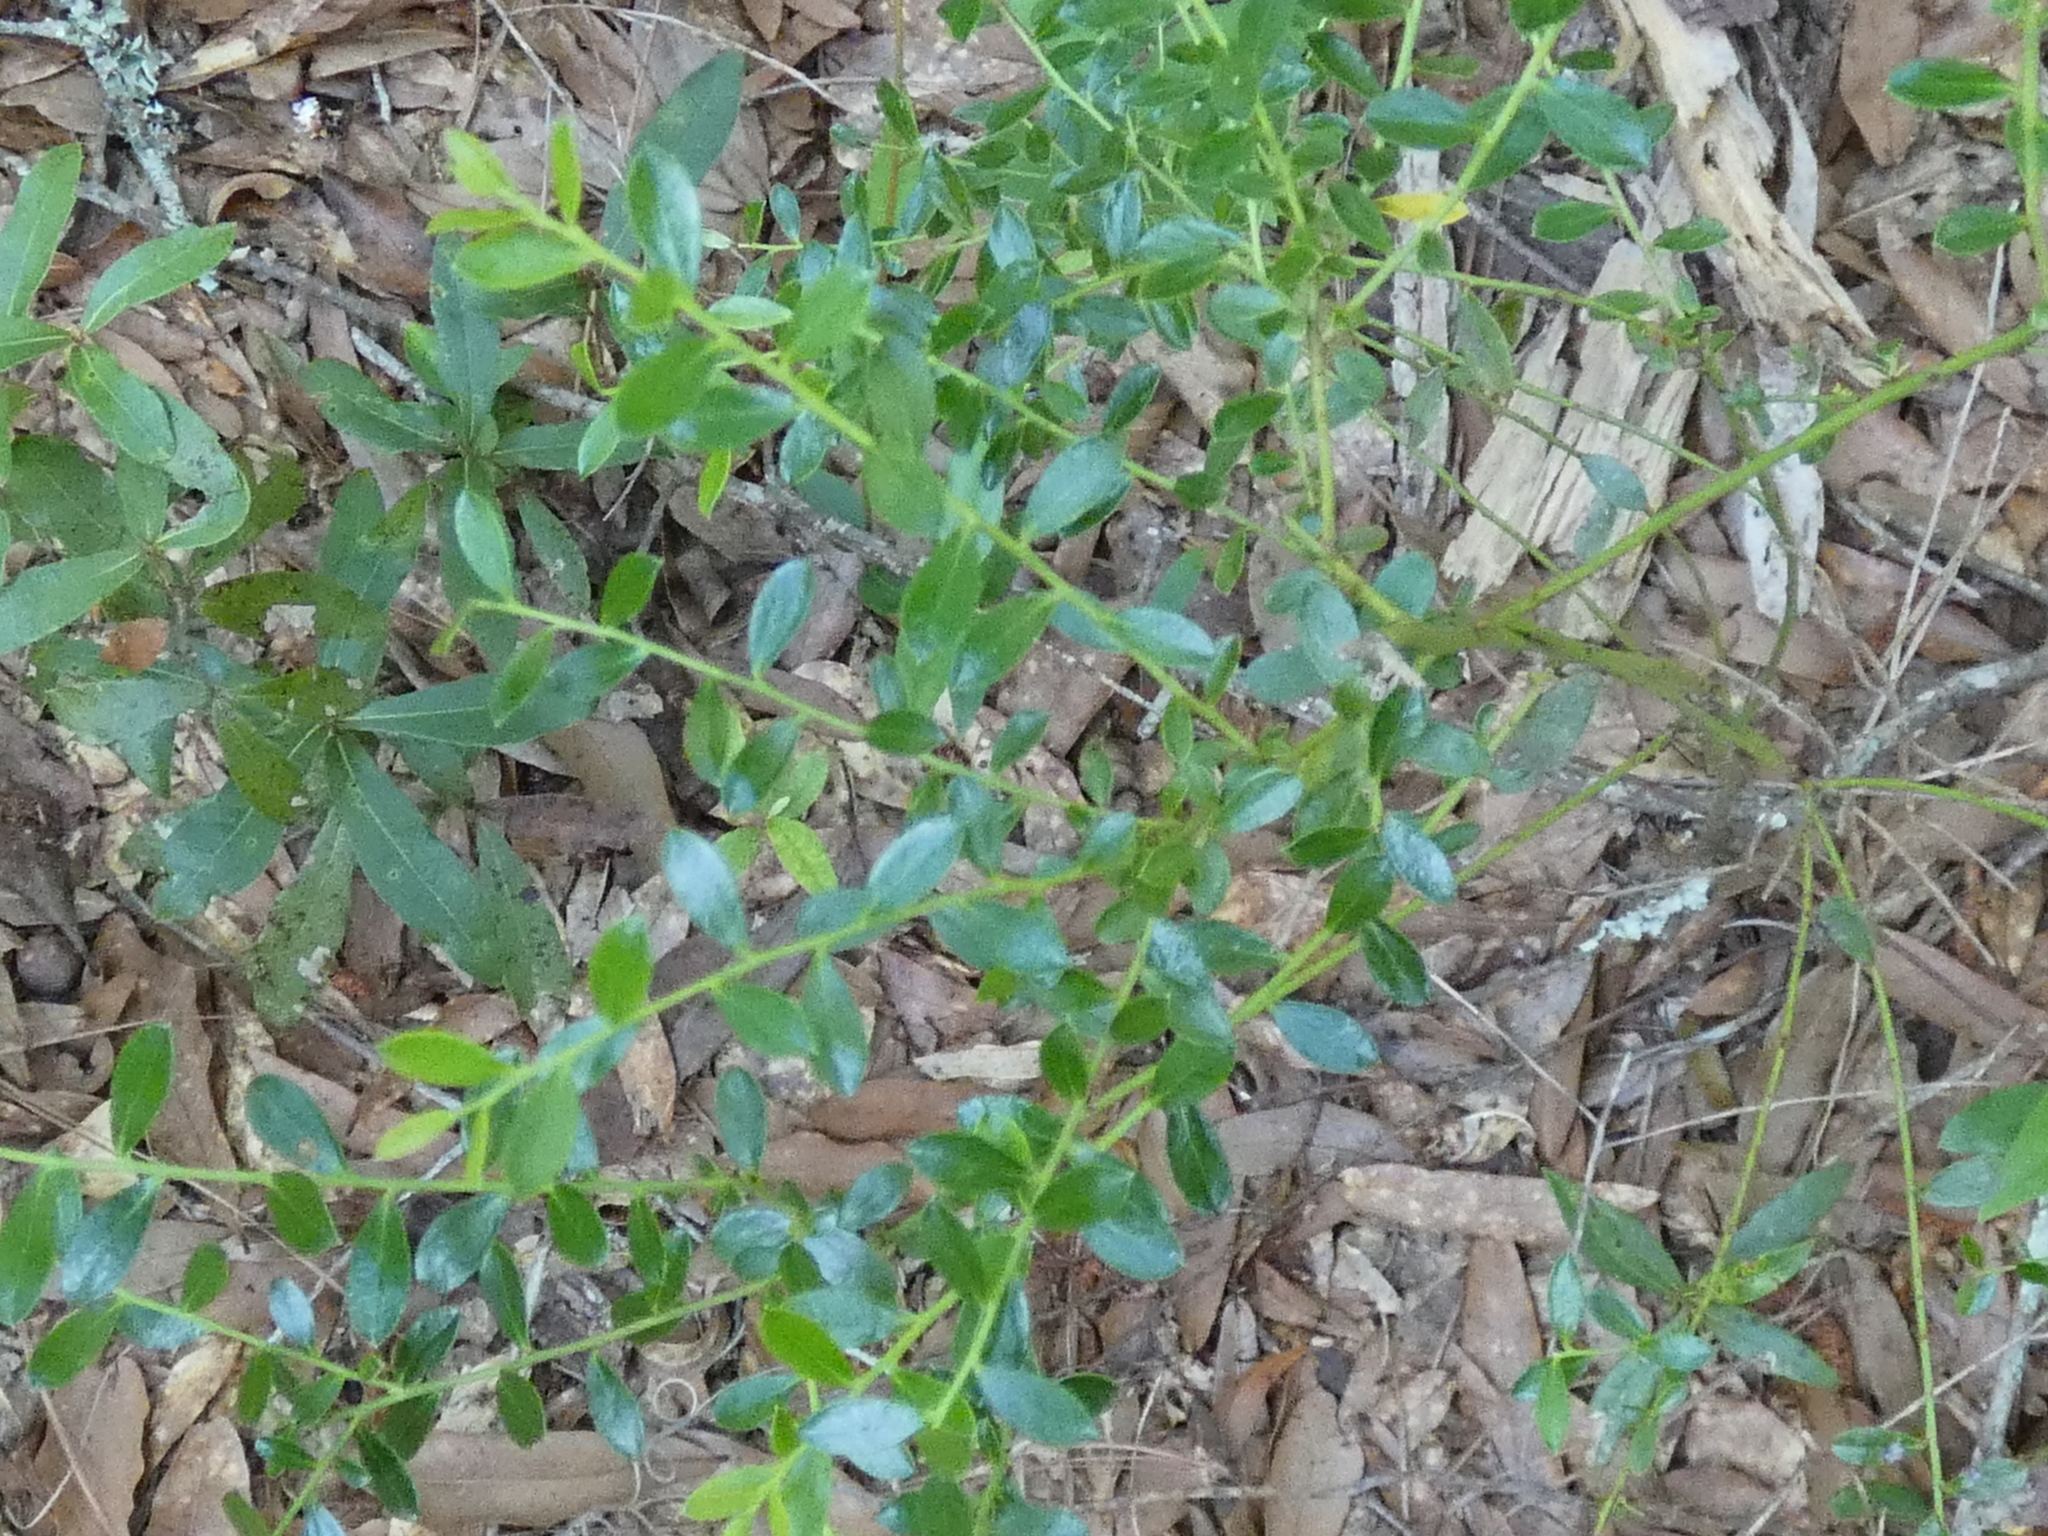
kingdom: Plantae
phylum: Tracheophyta
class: Magnoliopsida
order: Ericales
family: Ericaceae
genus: Vaccinium
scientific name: Vaccinium myrsinites
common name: Evergreen blueberry
